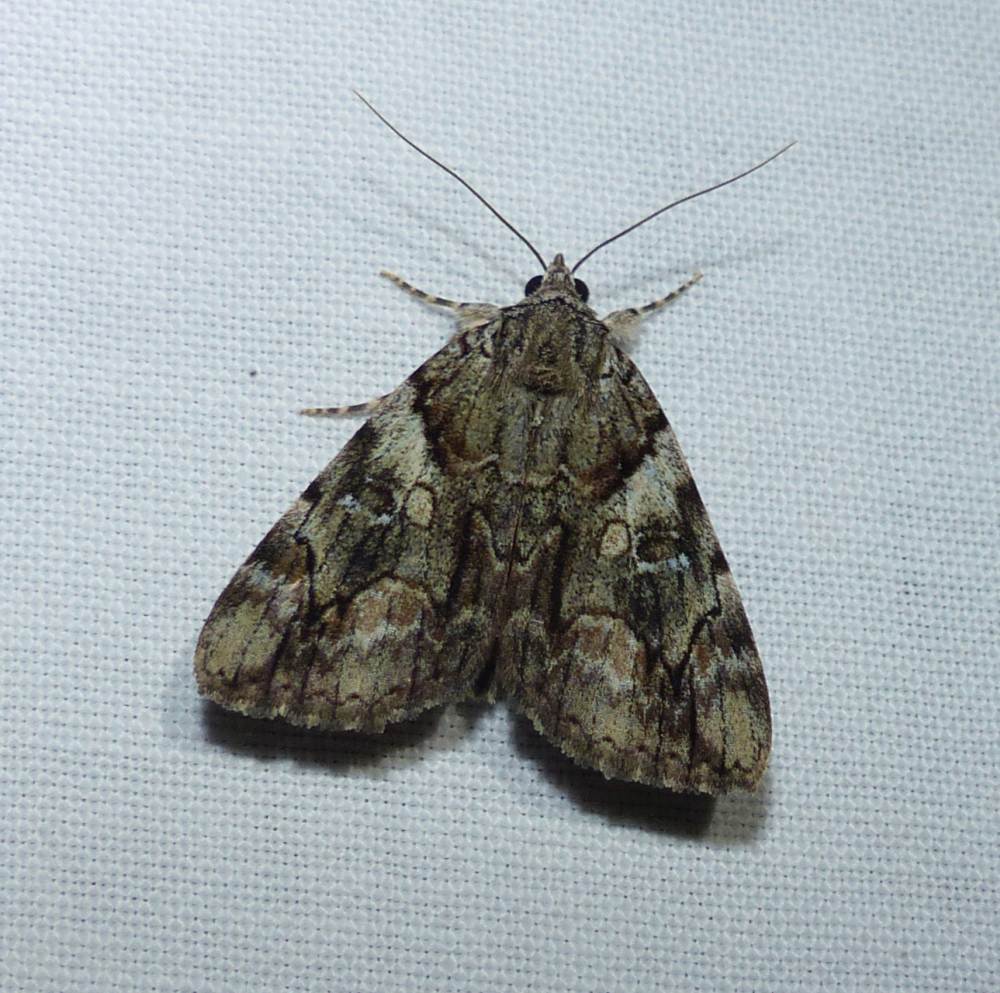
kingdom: Animalia
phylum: Arthropoda
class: Insecta
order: Lepidoptera
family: Erebidae
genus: Catocala
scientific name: Catocala mira
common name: Wonderful underwing
